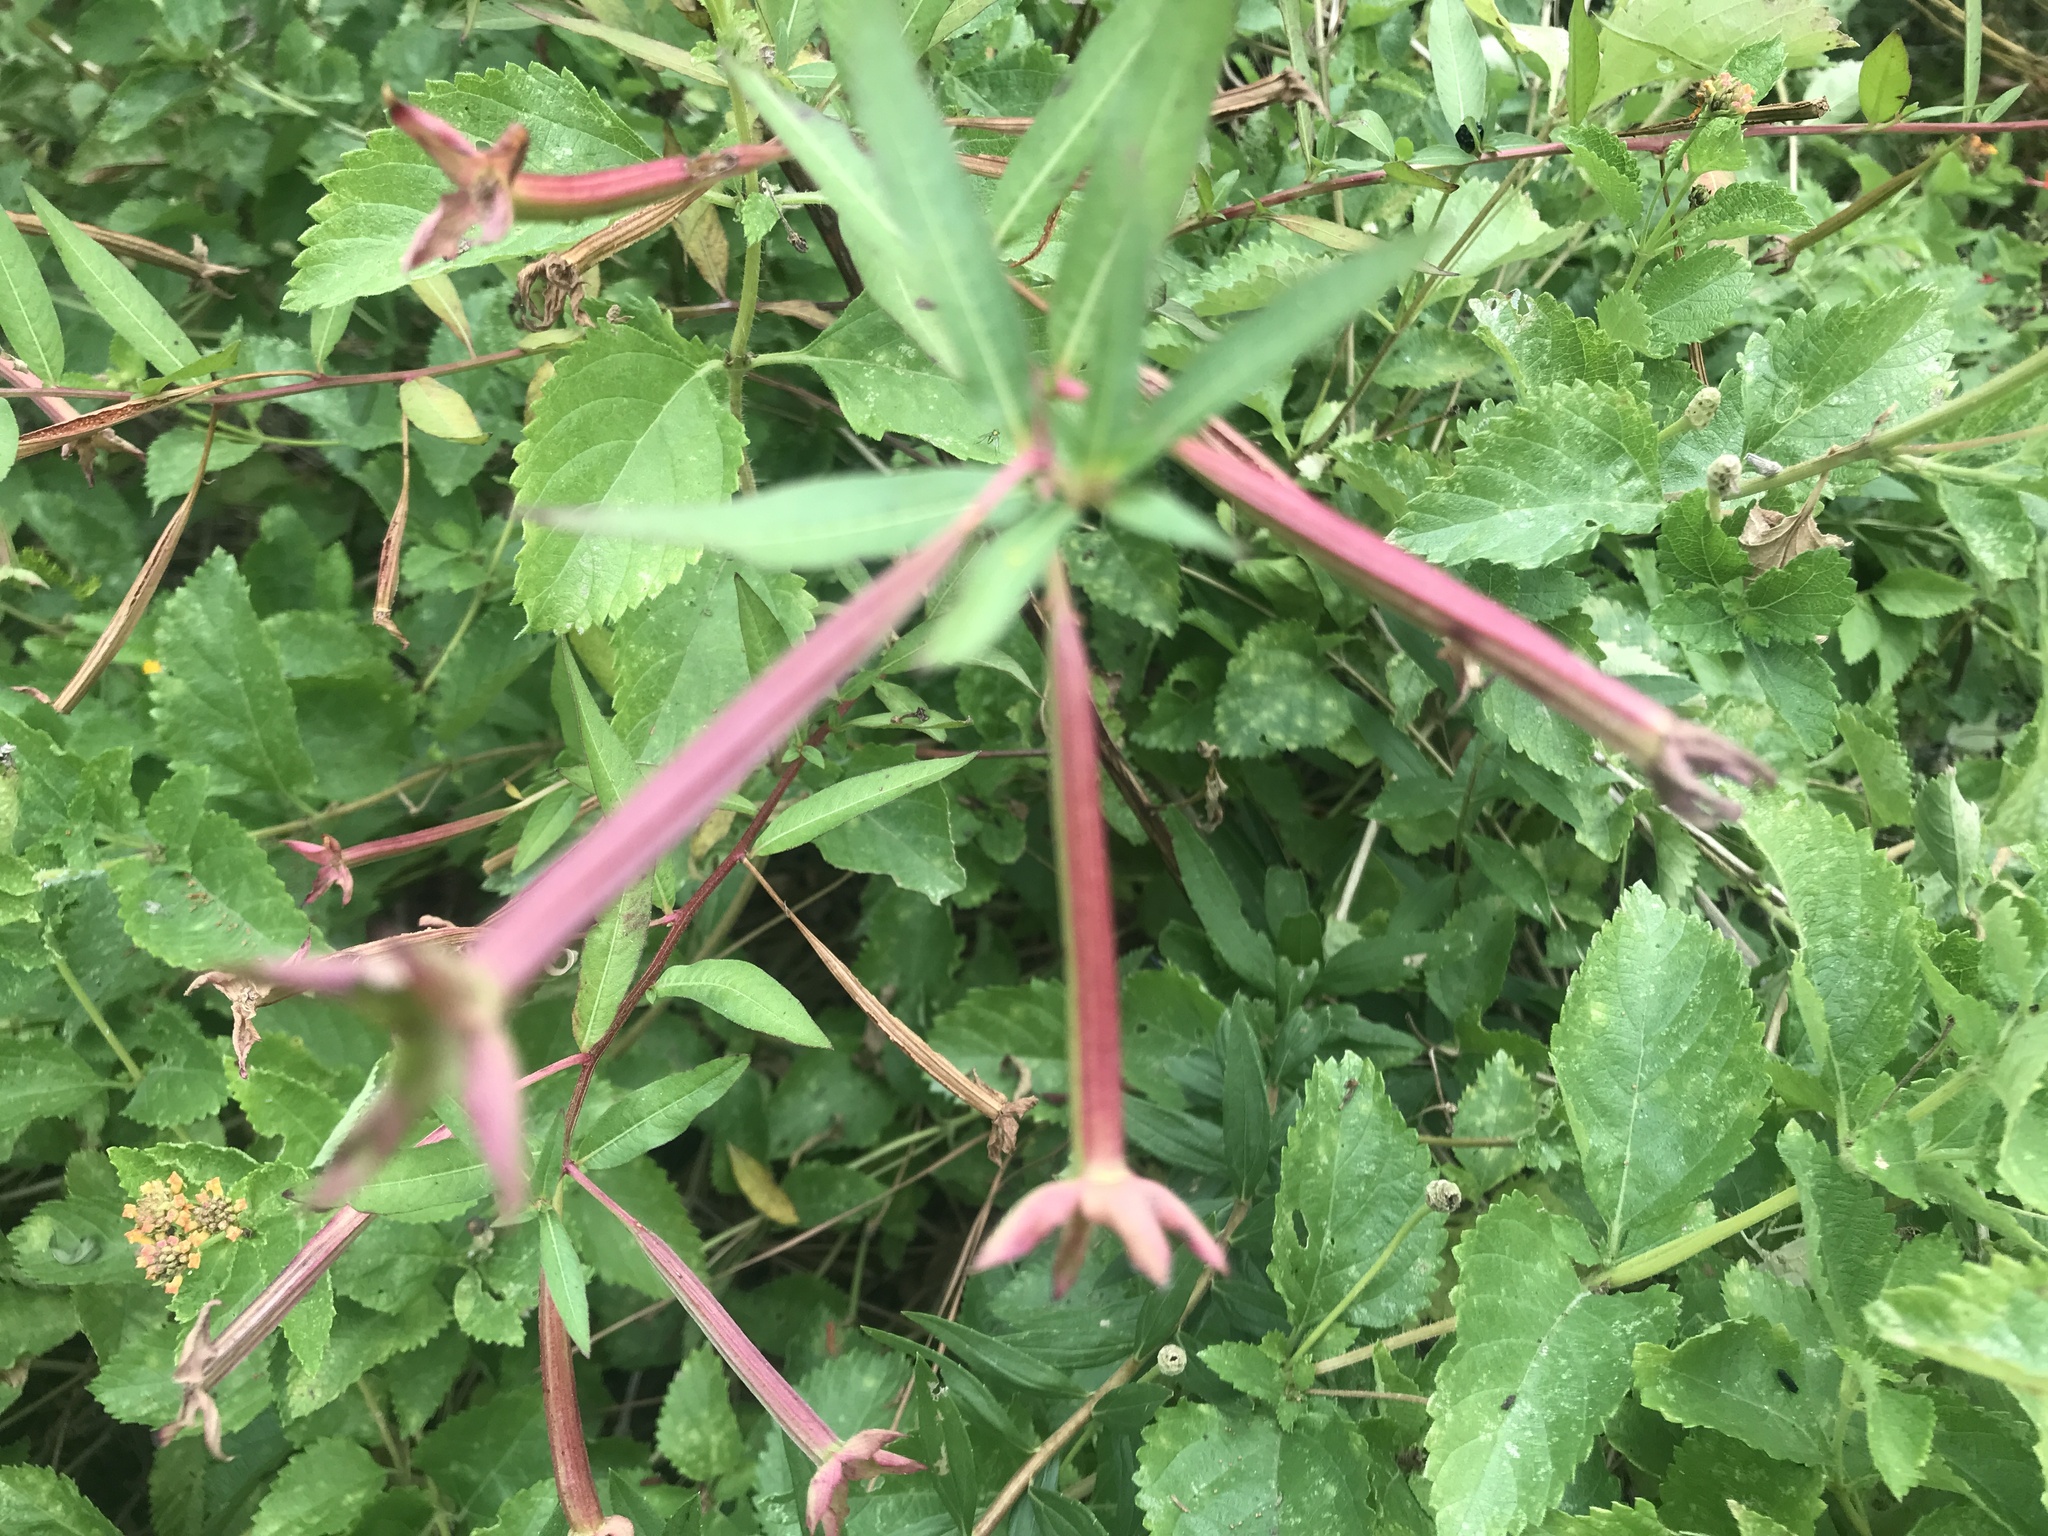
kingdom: Plantae
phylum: Tracheophyta
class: Magnoliopsida
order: Myrtales
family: Onagraceae
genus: Ludwigia
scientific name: Ludwigia octovalvis
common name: Water-primrose
